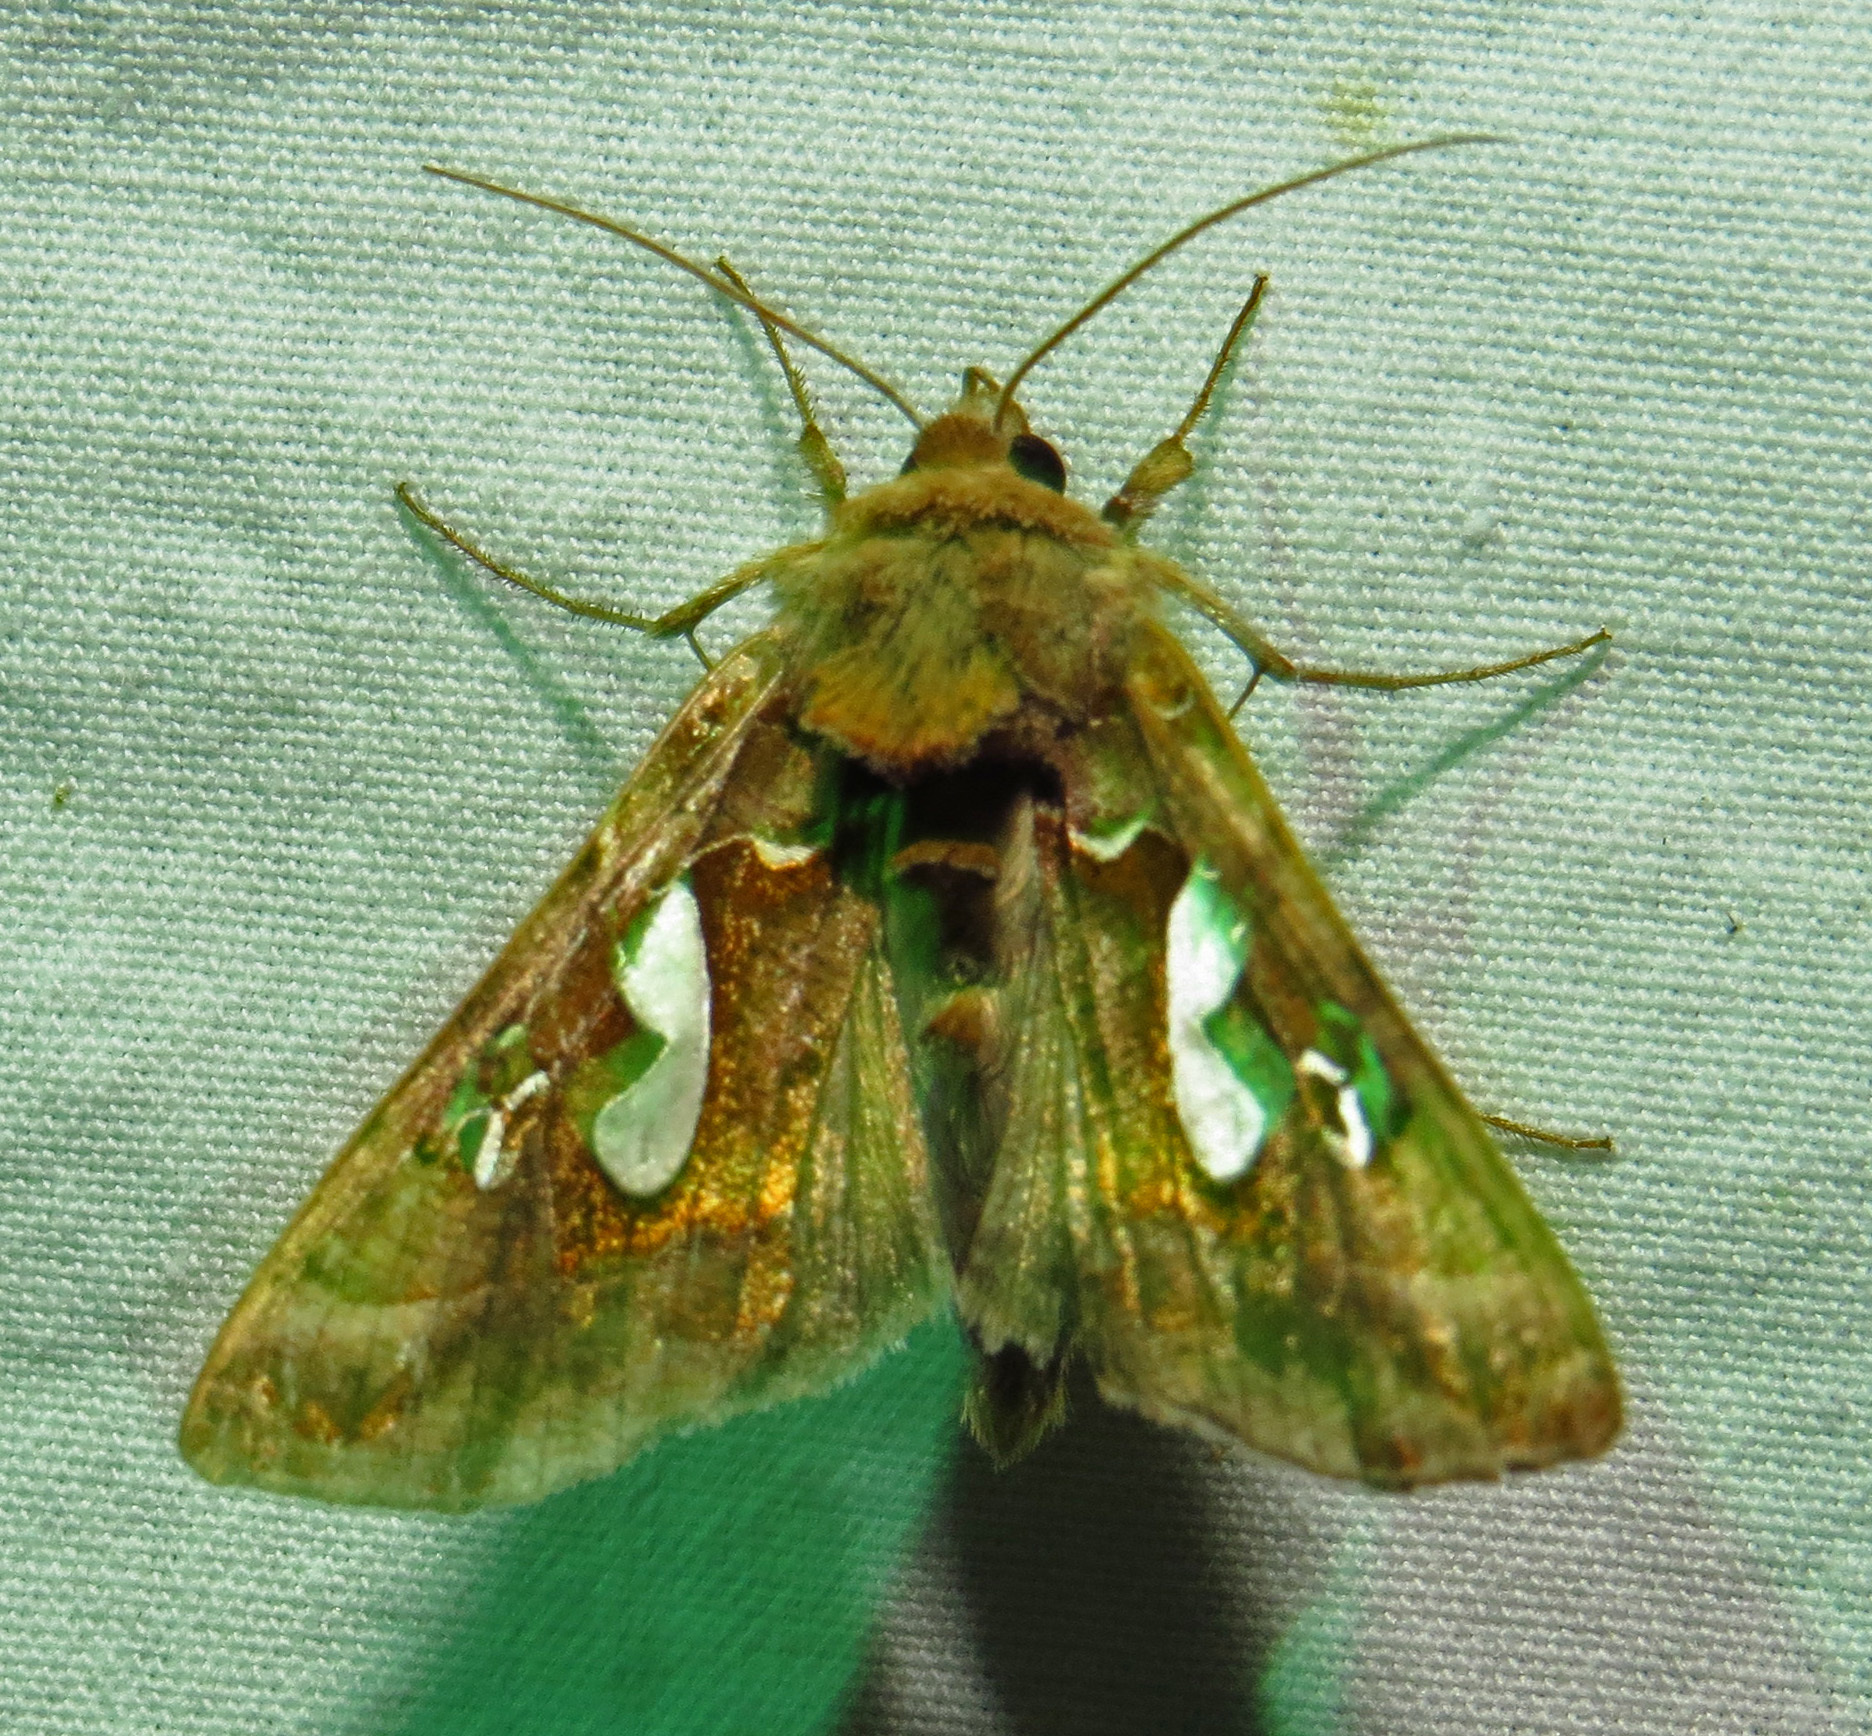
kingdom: Animalia
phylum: Arthropoda
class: Insecta
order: Lepidoptera
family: Noctuidae
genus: Megalographa
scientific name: Megalographa biloba
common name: Cutworm
